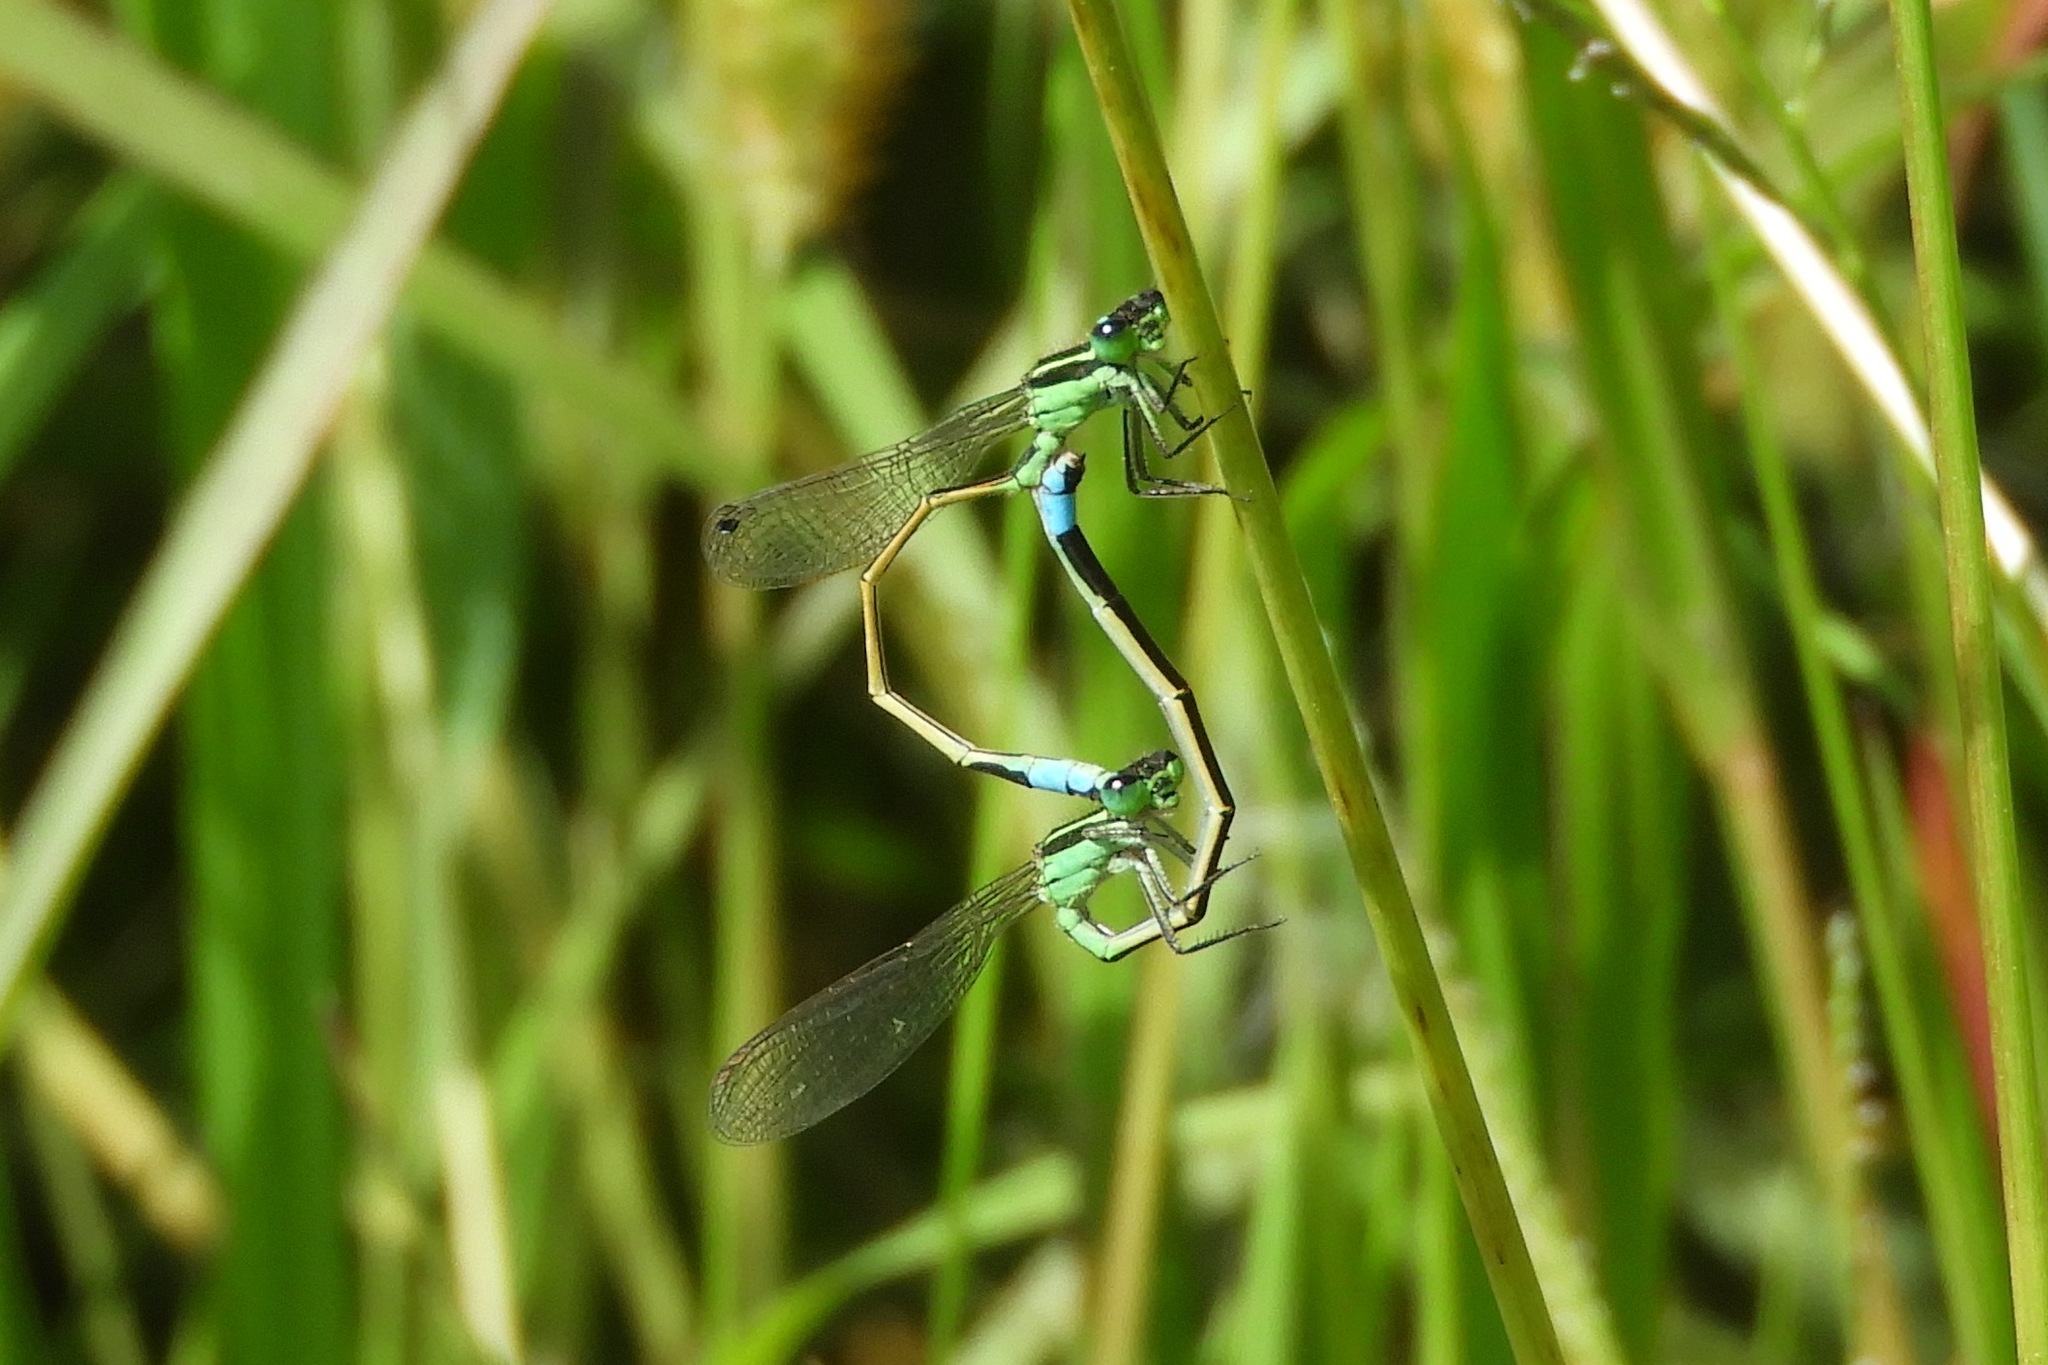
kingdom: Animalia
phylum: Arthropoda
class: Insecta
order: Odonata
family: Coenagrionidae
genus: Ischnura
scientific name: Ischnura ramburii
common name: Rambur's forktail
